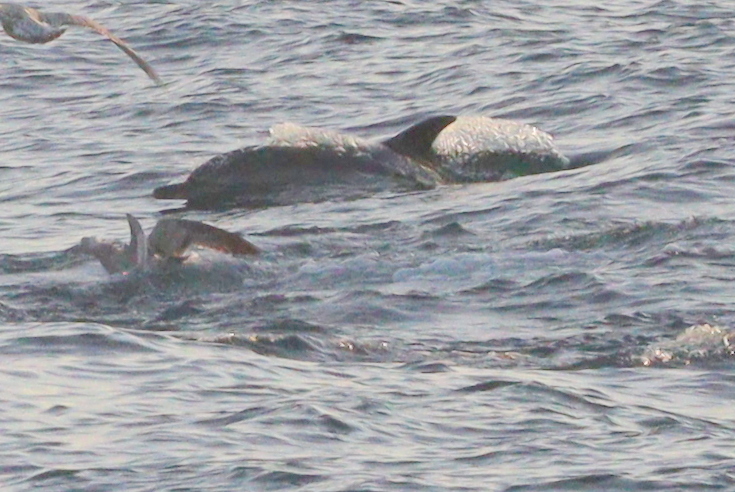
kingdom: Animalia
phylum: Chordata
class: Mammalia
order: Cetacea
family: Delphinidae
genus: Delphinus
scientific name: Delphinus delphis
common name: Common dolphin
